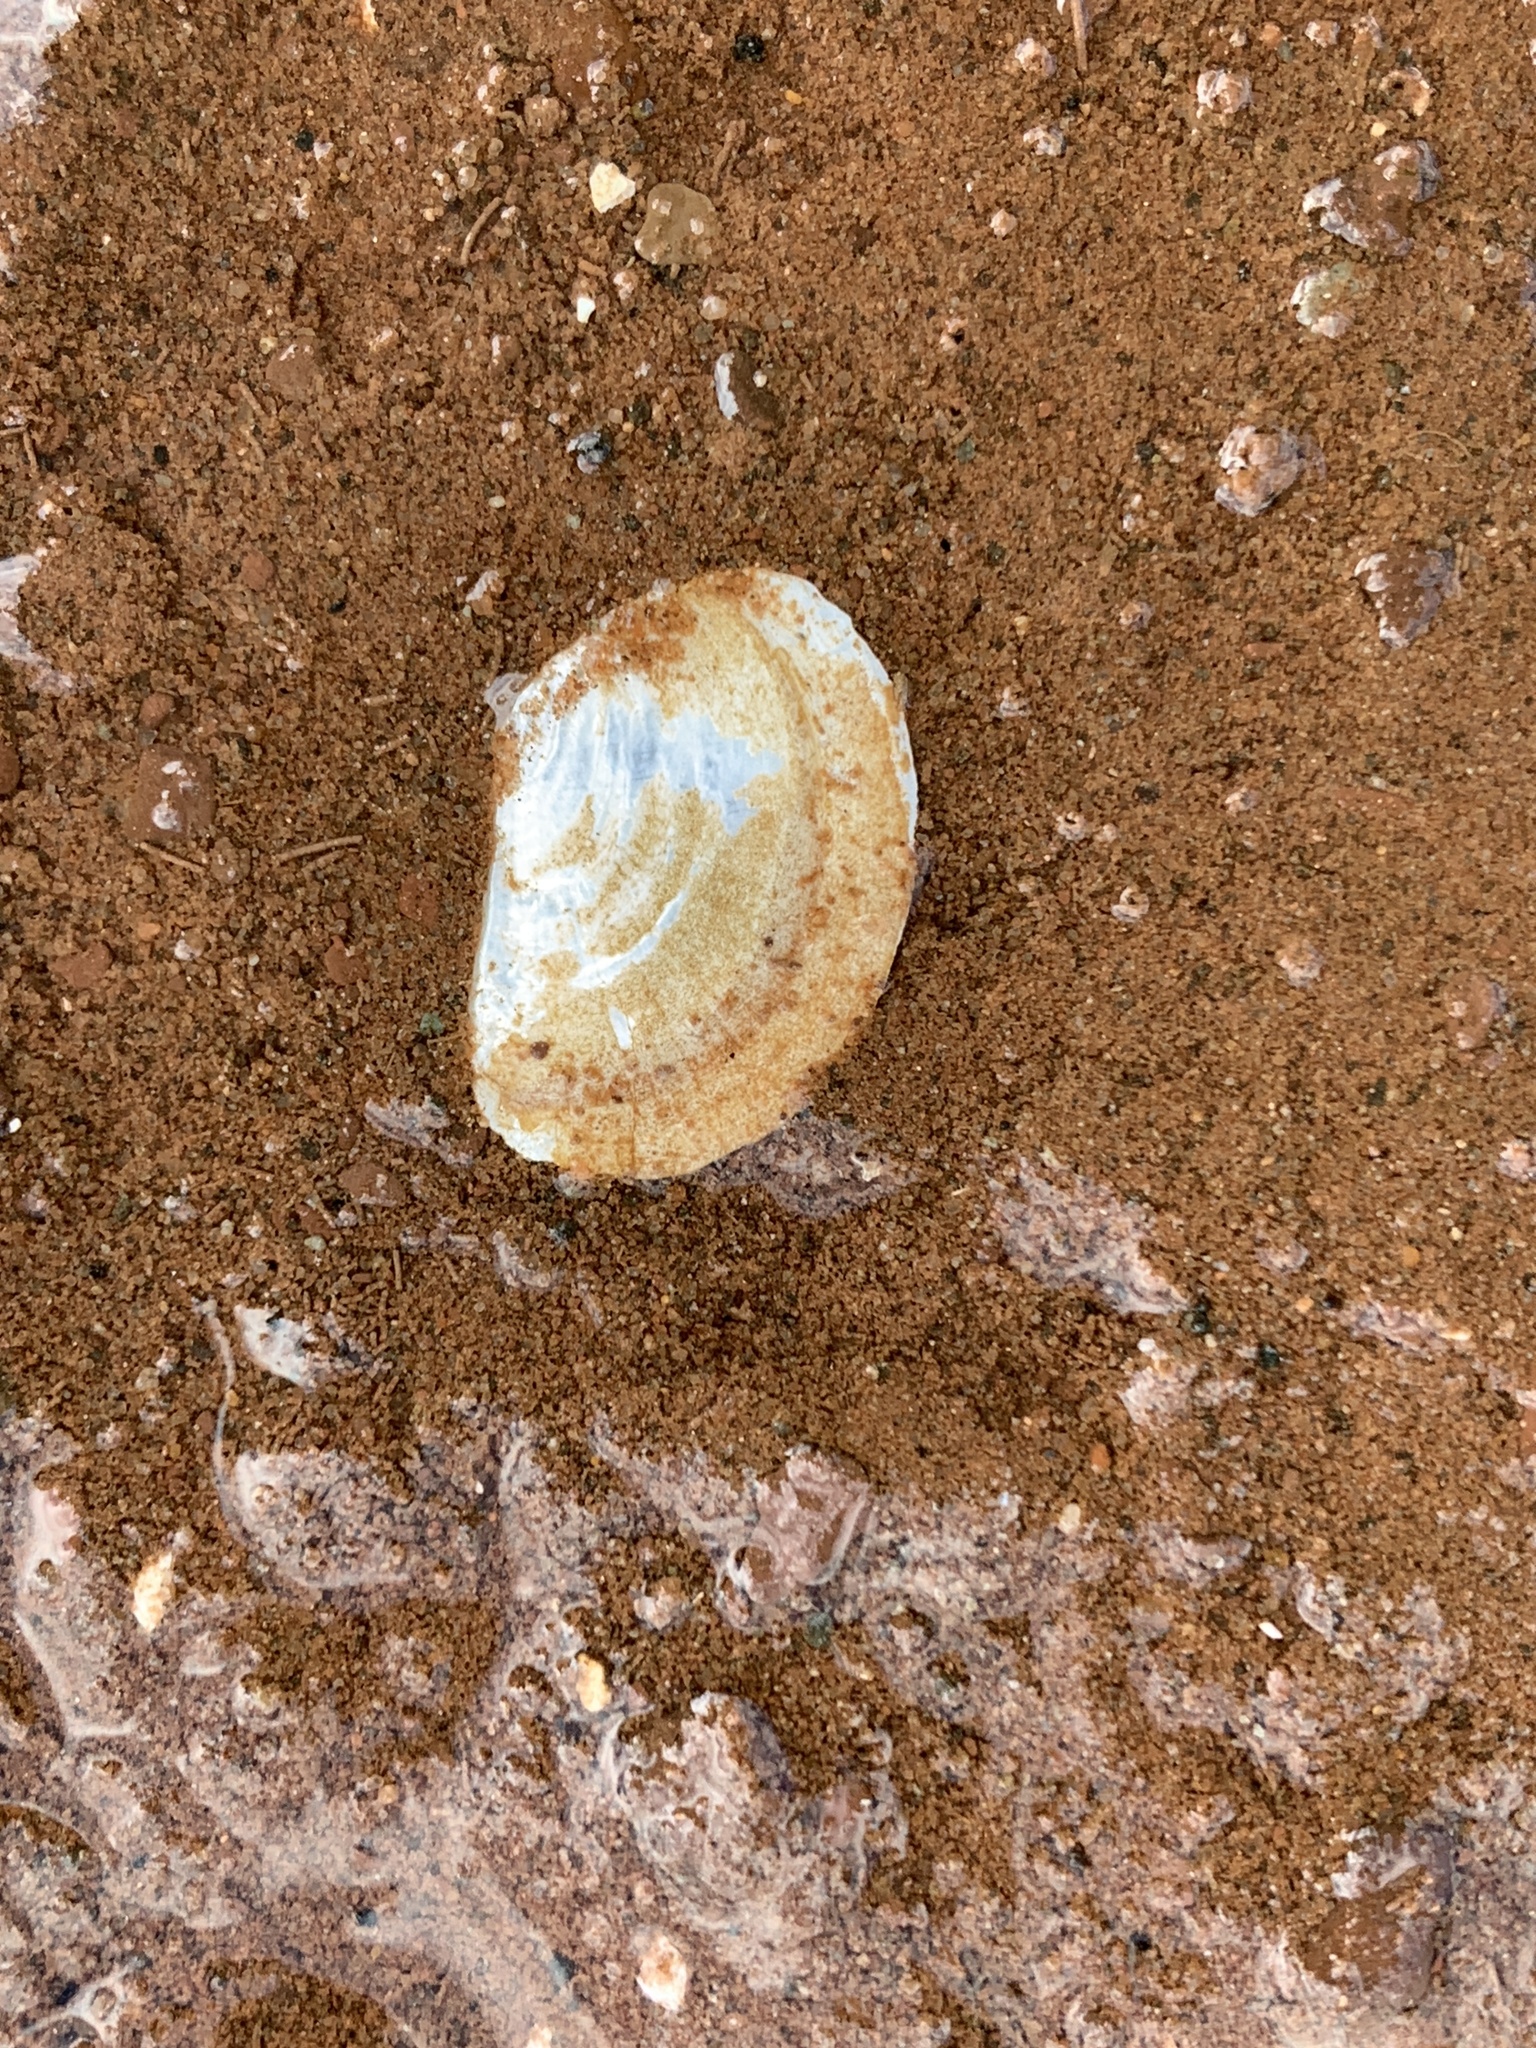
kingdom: Animalia
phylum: Mollusca
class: Bivalvia
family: Pandoridae
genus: Pandora
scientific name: Pandora gouldiana
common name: Rounded pandora
